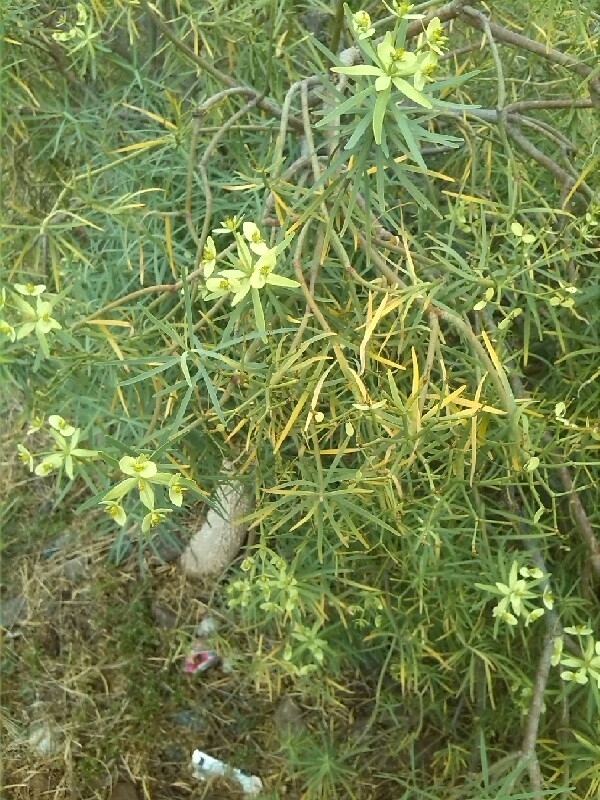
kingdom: Plantae
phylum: Tracheophyta
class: Magnoliopsida
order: Malpighiales
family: Euphorbiaceae
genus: Euphorbia
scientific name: Euphorbia regis-jubae
